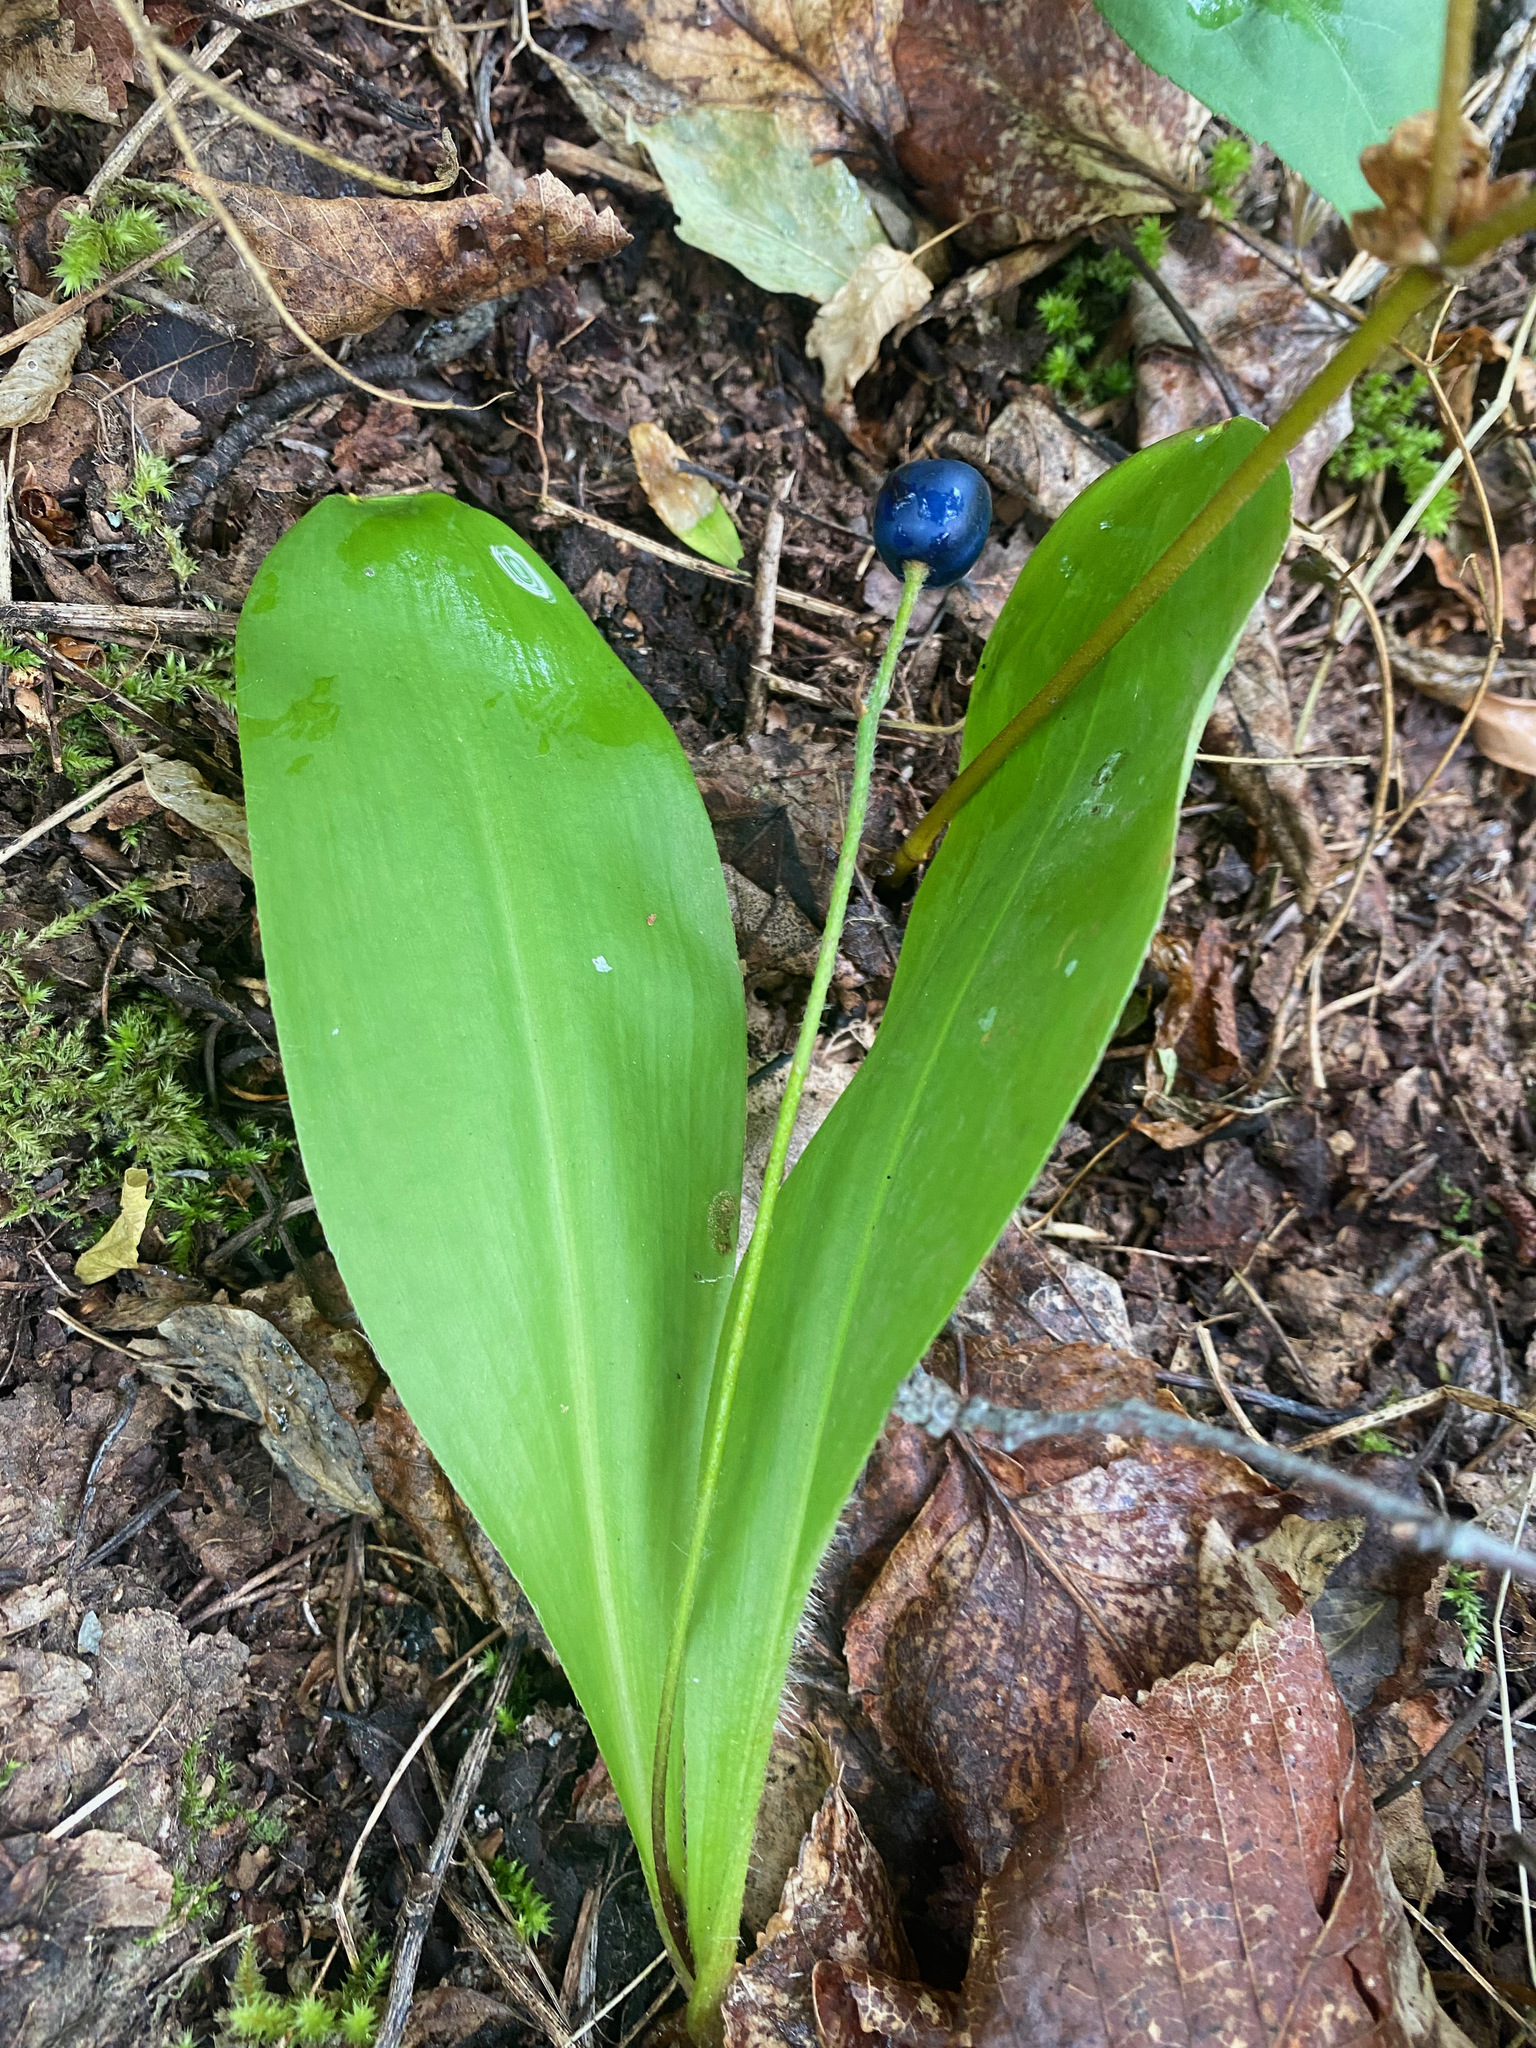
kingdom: Plantae
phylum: Tracheophyta
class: Liliopsida
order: Liliales
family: Liliaceae
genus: Clintonia
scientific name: Clintonia uniflora
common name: Queen's cup
